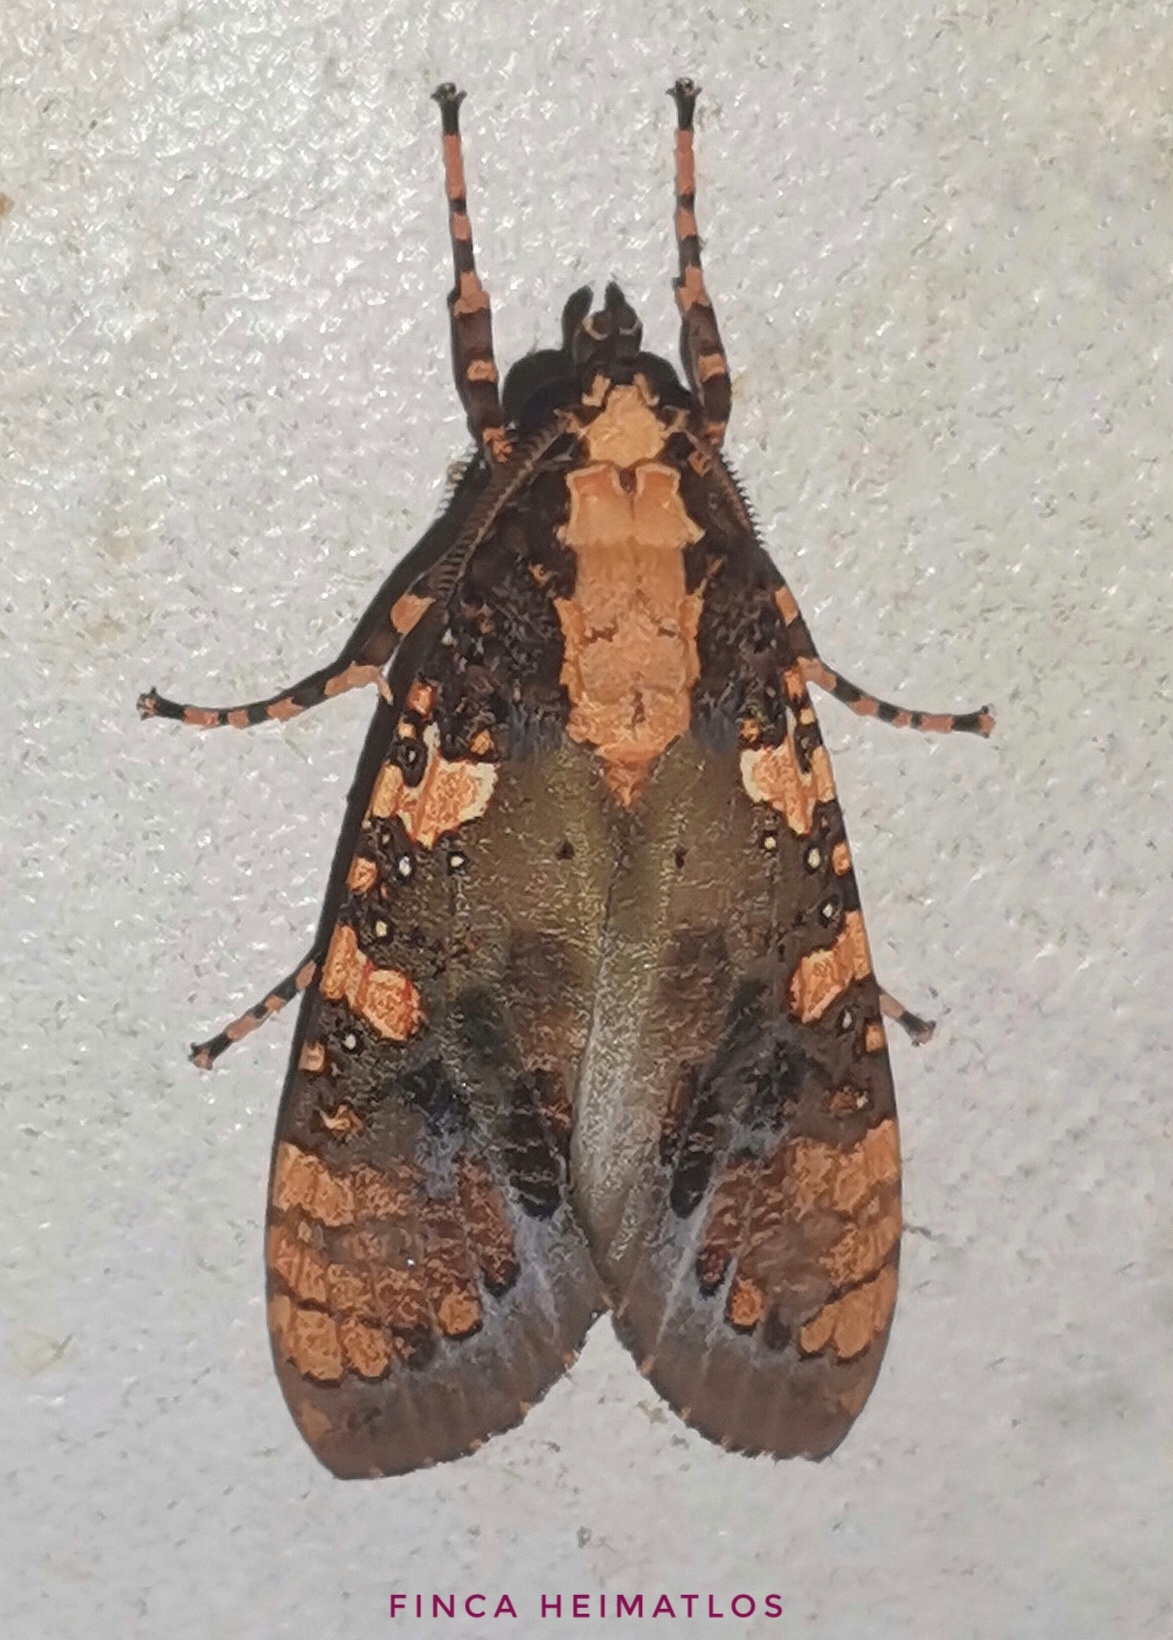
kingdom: Animalia
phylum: Arthropoda
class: Insecta
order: Lepidoptera
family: Erebidae
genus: Cresera
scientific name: Cresera ilus
